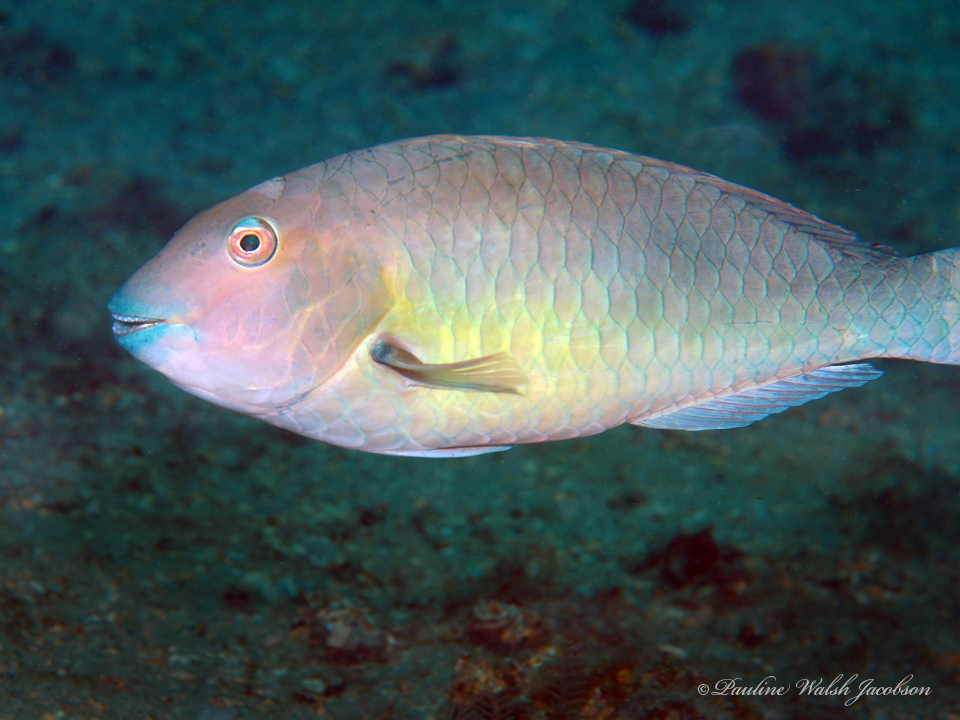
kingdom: Animalia
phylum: Chordata
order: Perciformes
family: Scaridae
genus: Sparisoma
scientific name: Sparisoma rubripinne
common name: Redfin parrotfish
